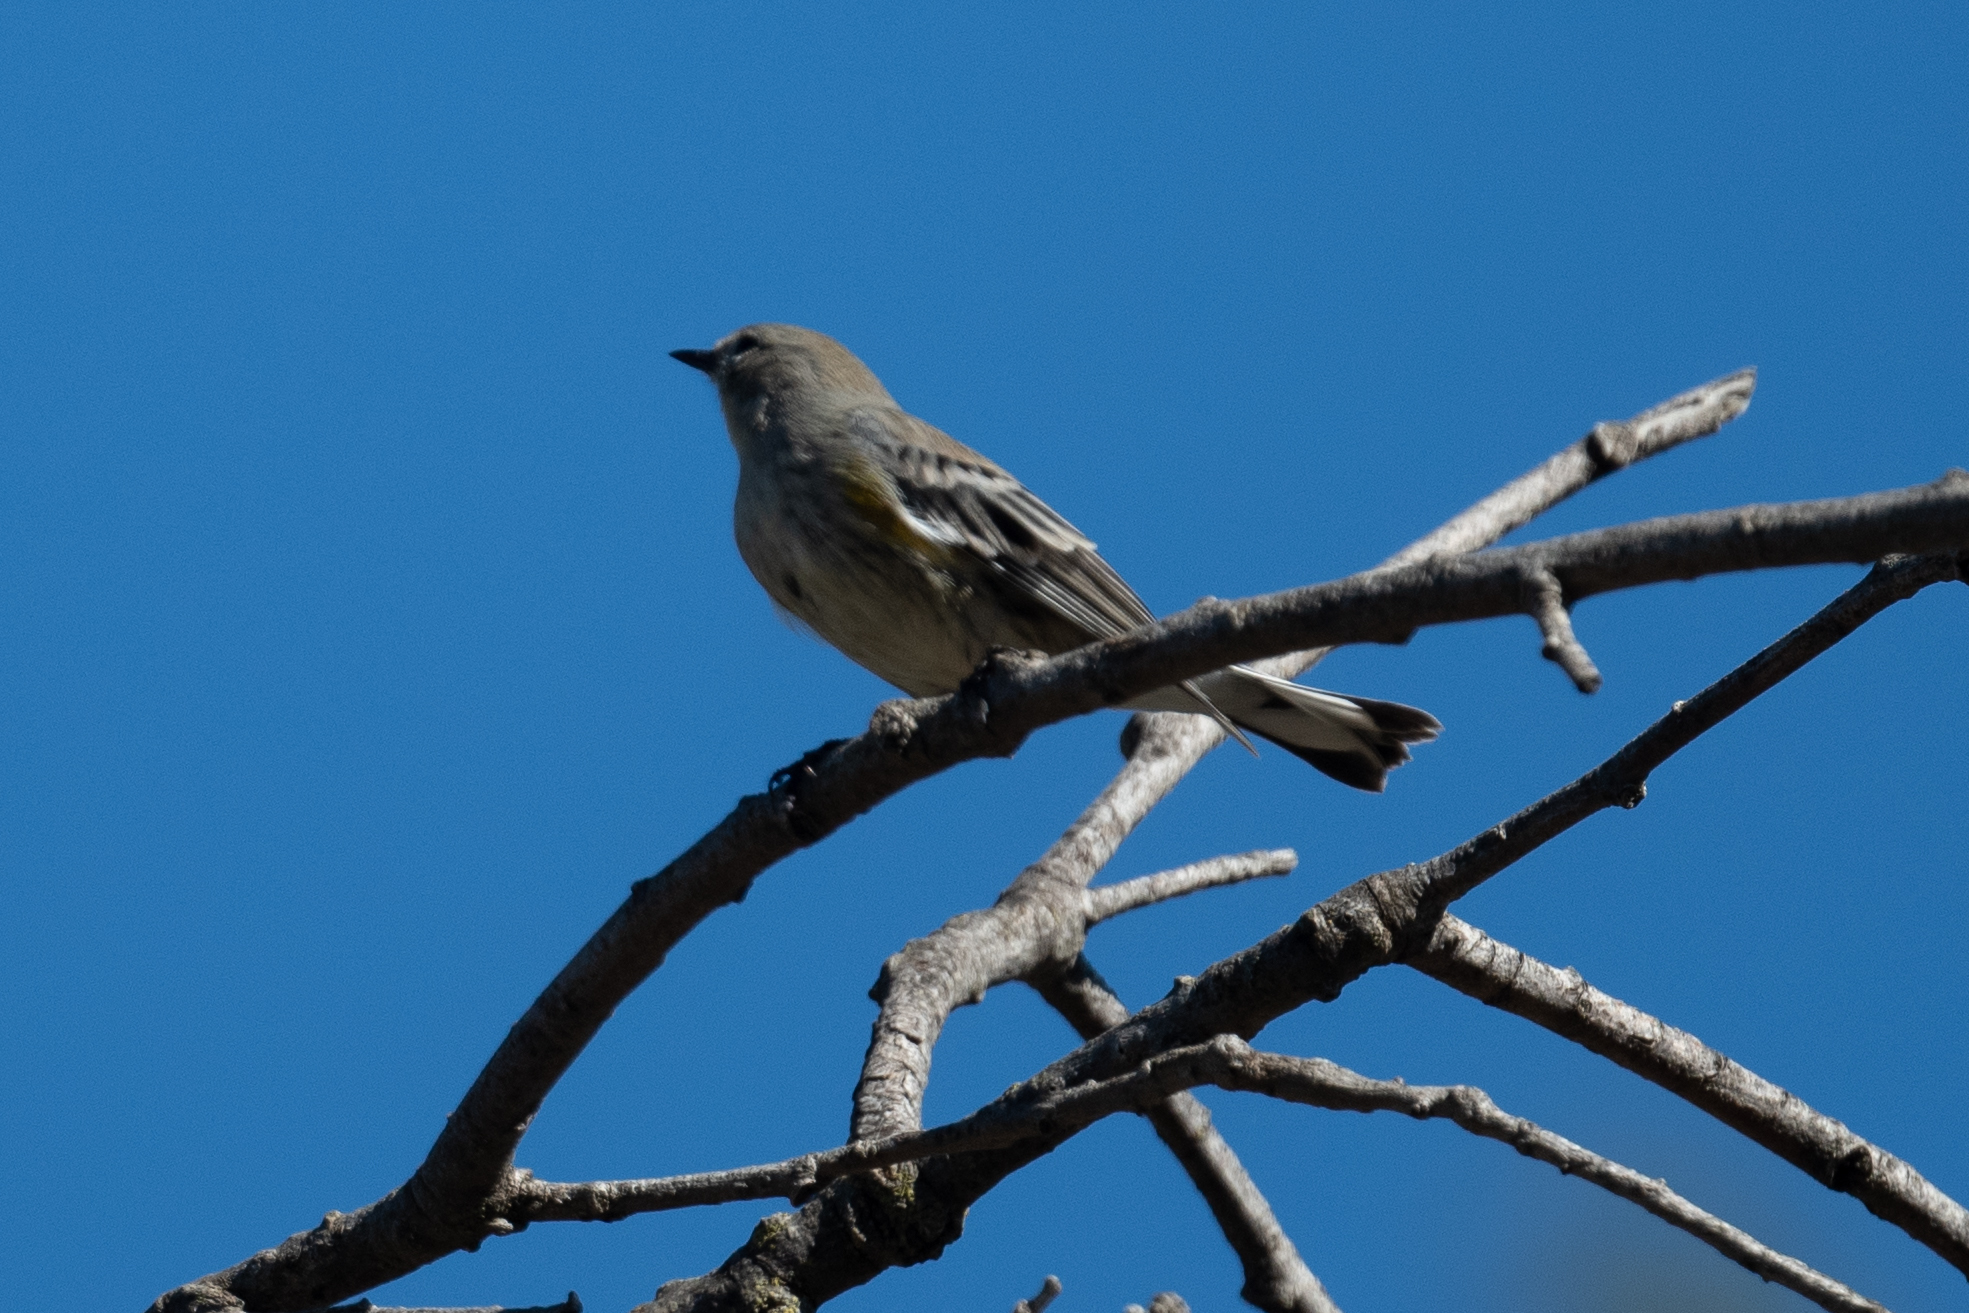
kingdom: Animalia
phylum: Chordata
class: Aves
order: Passeriformes
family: Parulidae
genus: Setophaga
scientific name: Setophaga coronata
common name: Myrtle warbler
